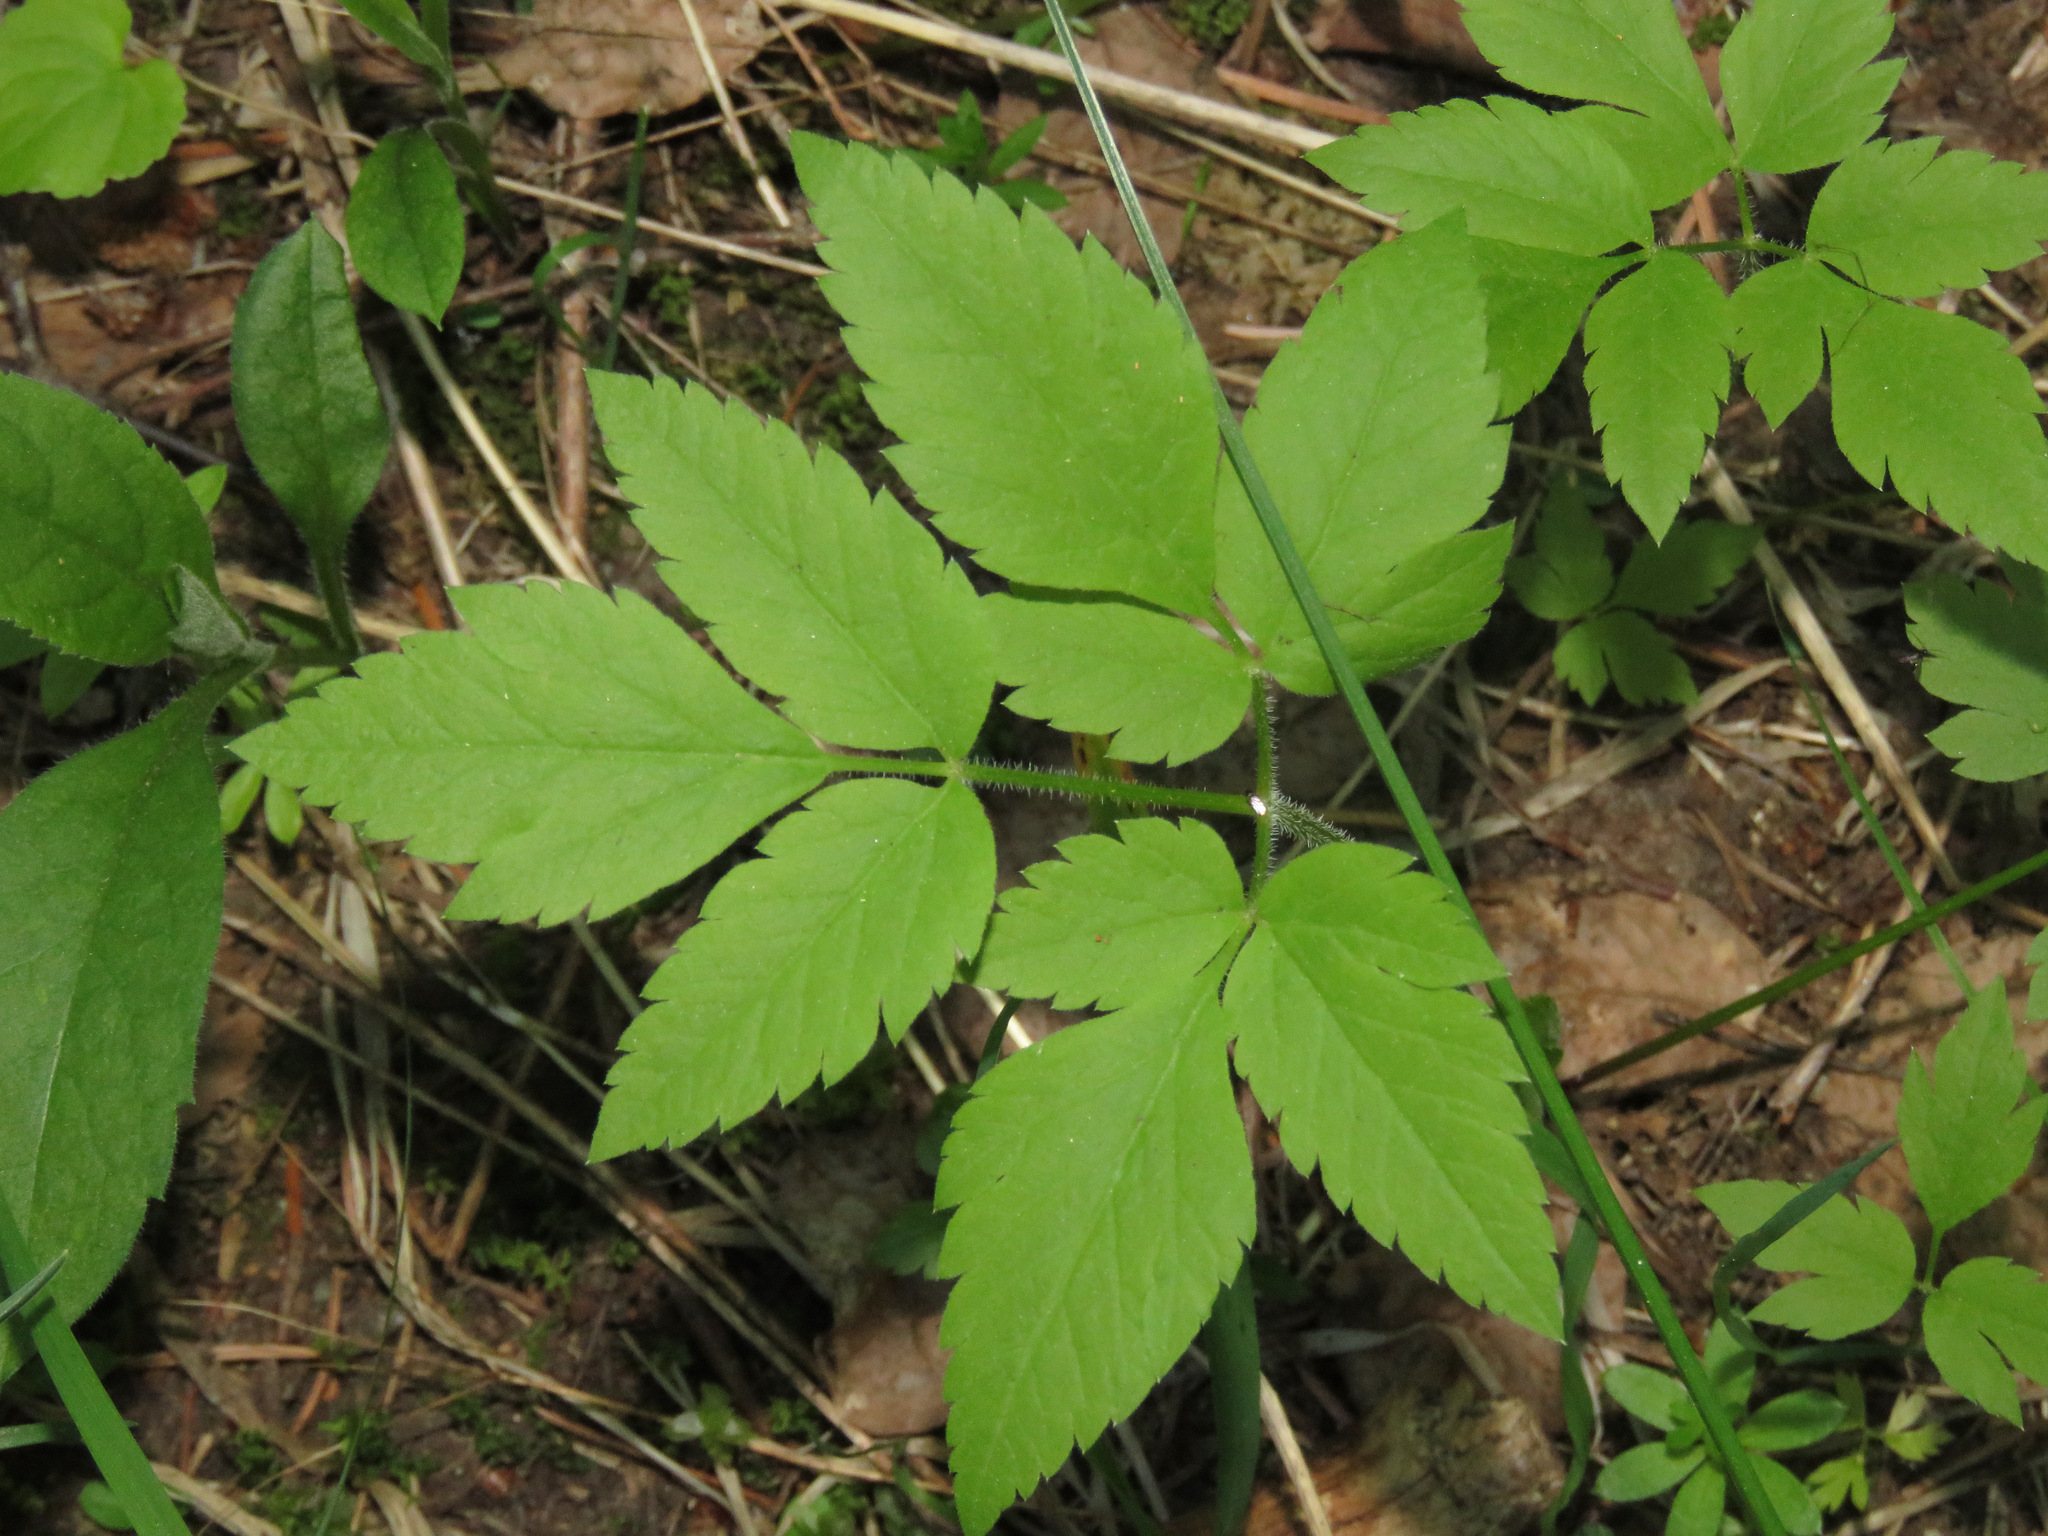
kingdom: Plantae
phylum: Tracheophyta
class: Magnoliopsida
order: Apiales
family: Apiaceae
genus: Osmorhiza
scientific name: Osmorhiza berteroi
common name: Mountain sweet cicely
